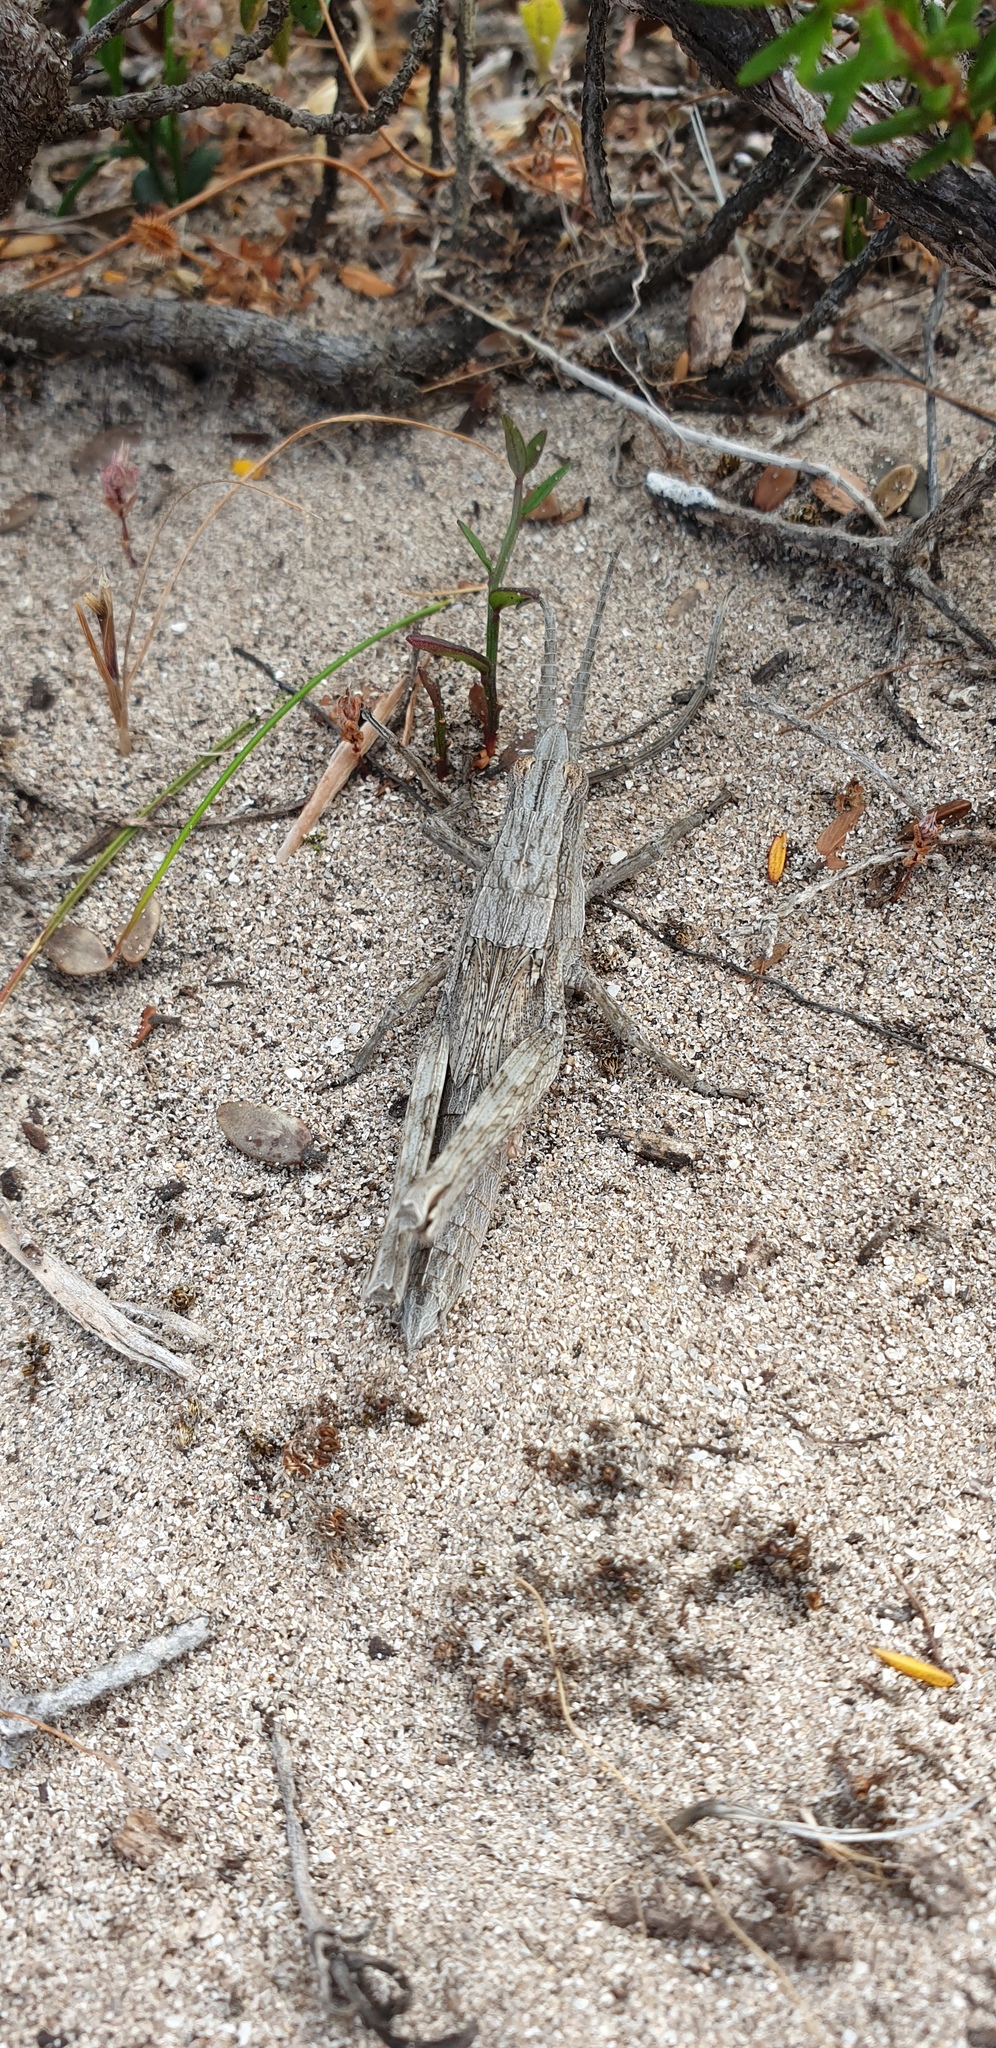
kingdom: Animalia
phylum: Arthropoda
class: Insecta
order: Orthoptera
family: Acrididae
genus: Coryphistes
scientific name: Coryphistes ruricola
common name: Bark-mimicking grasshopper
